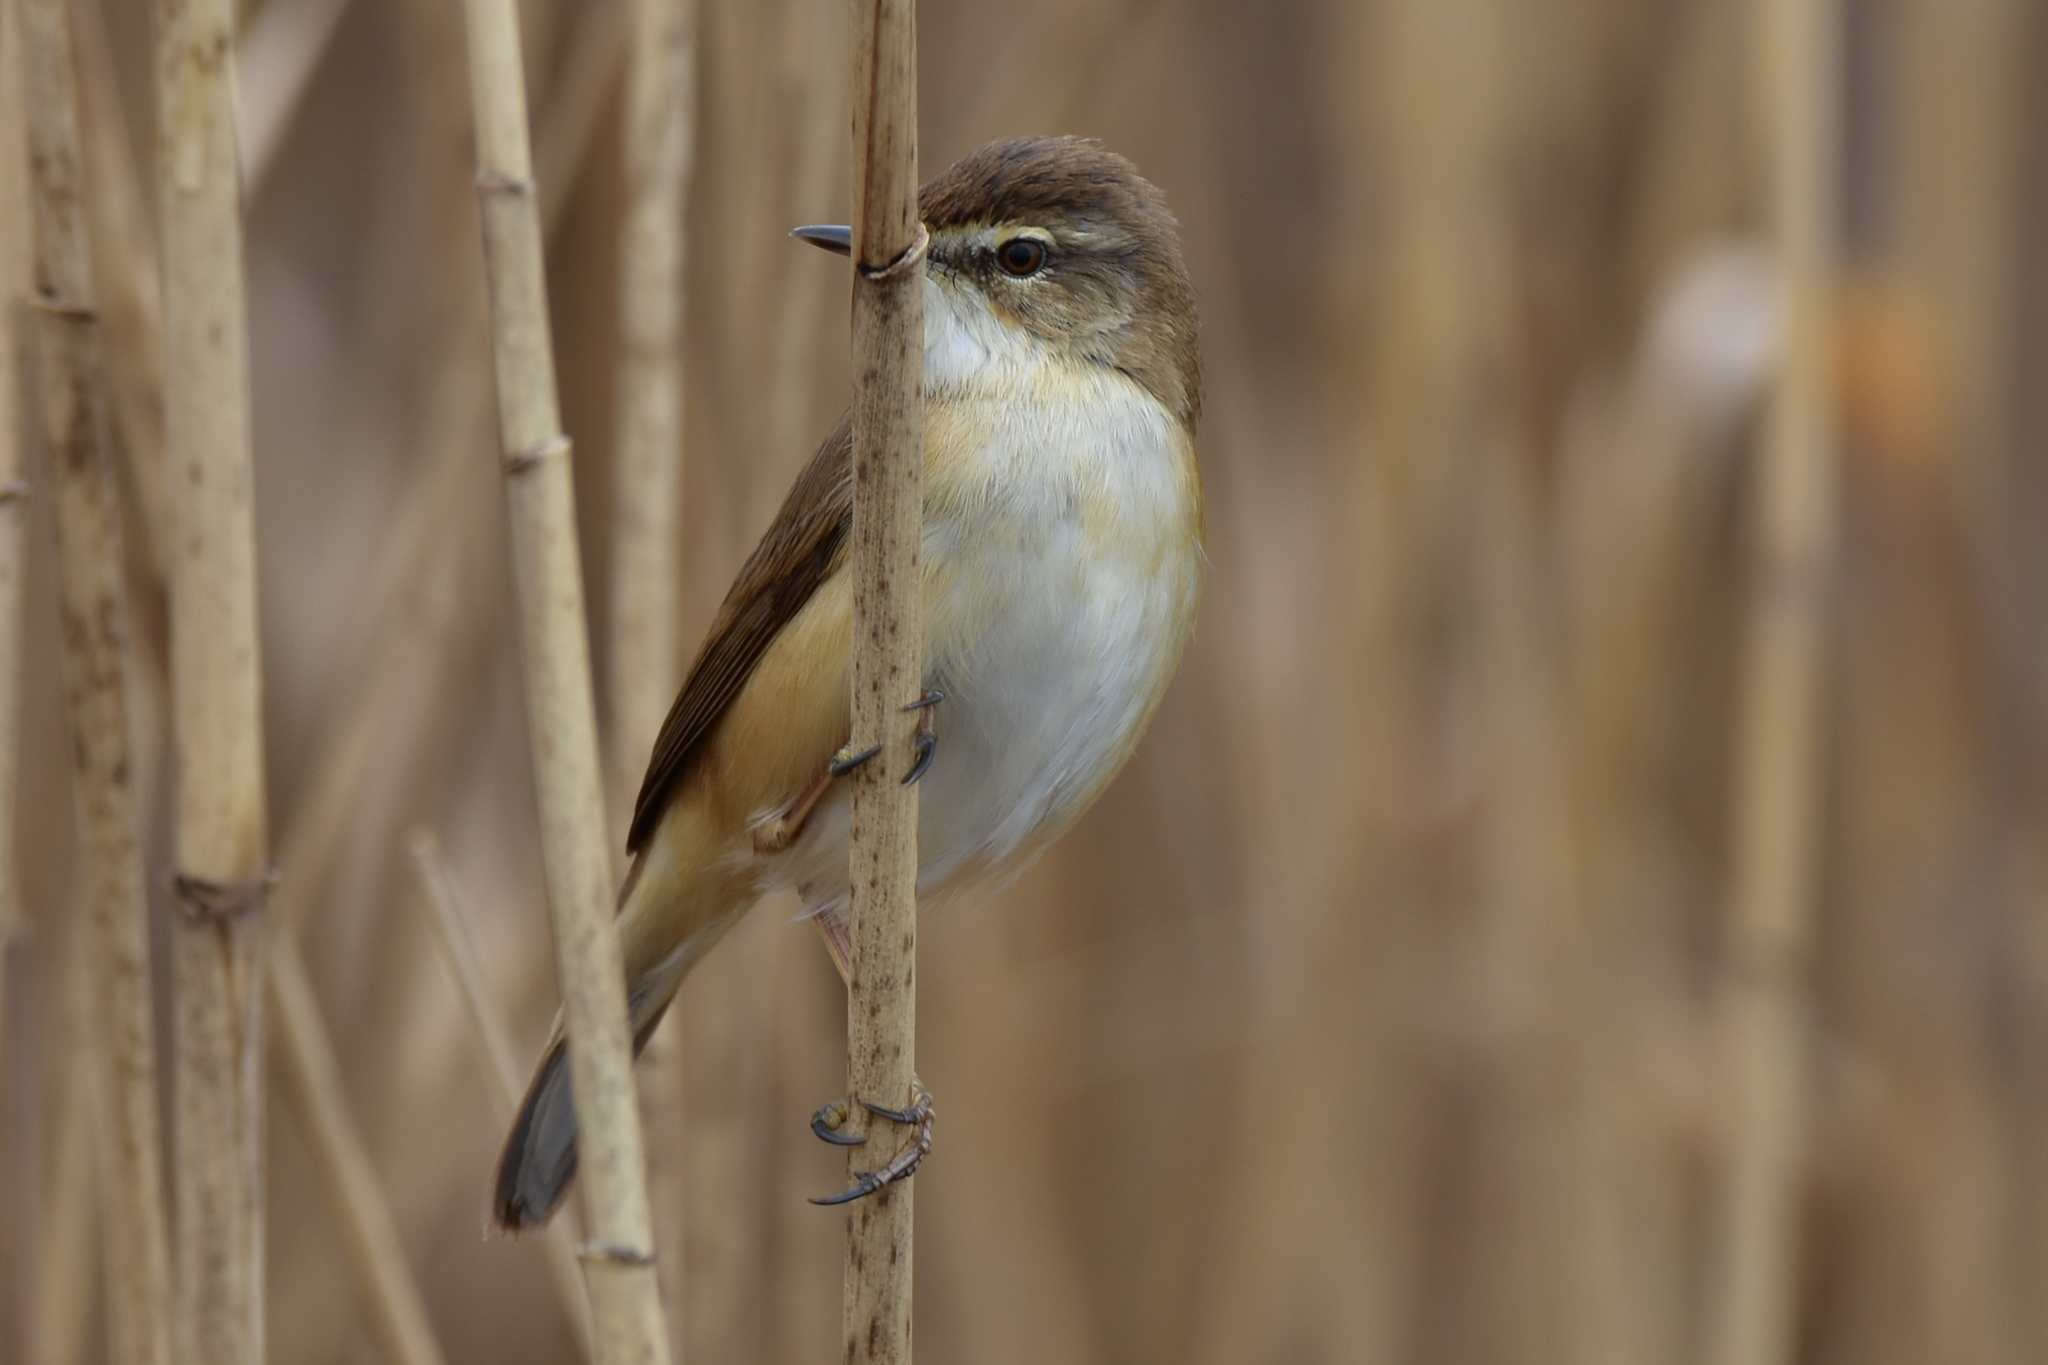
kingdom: Animalia
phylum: Chordata
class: Aves
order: Passeriformes
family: Acrocephalidae
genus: Acrocephalus
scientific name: Acrocephalus agricola
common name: Paddyfield warbler
